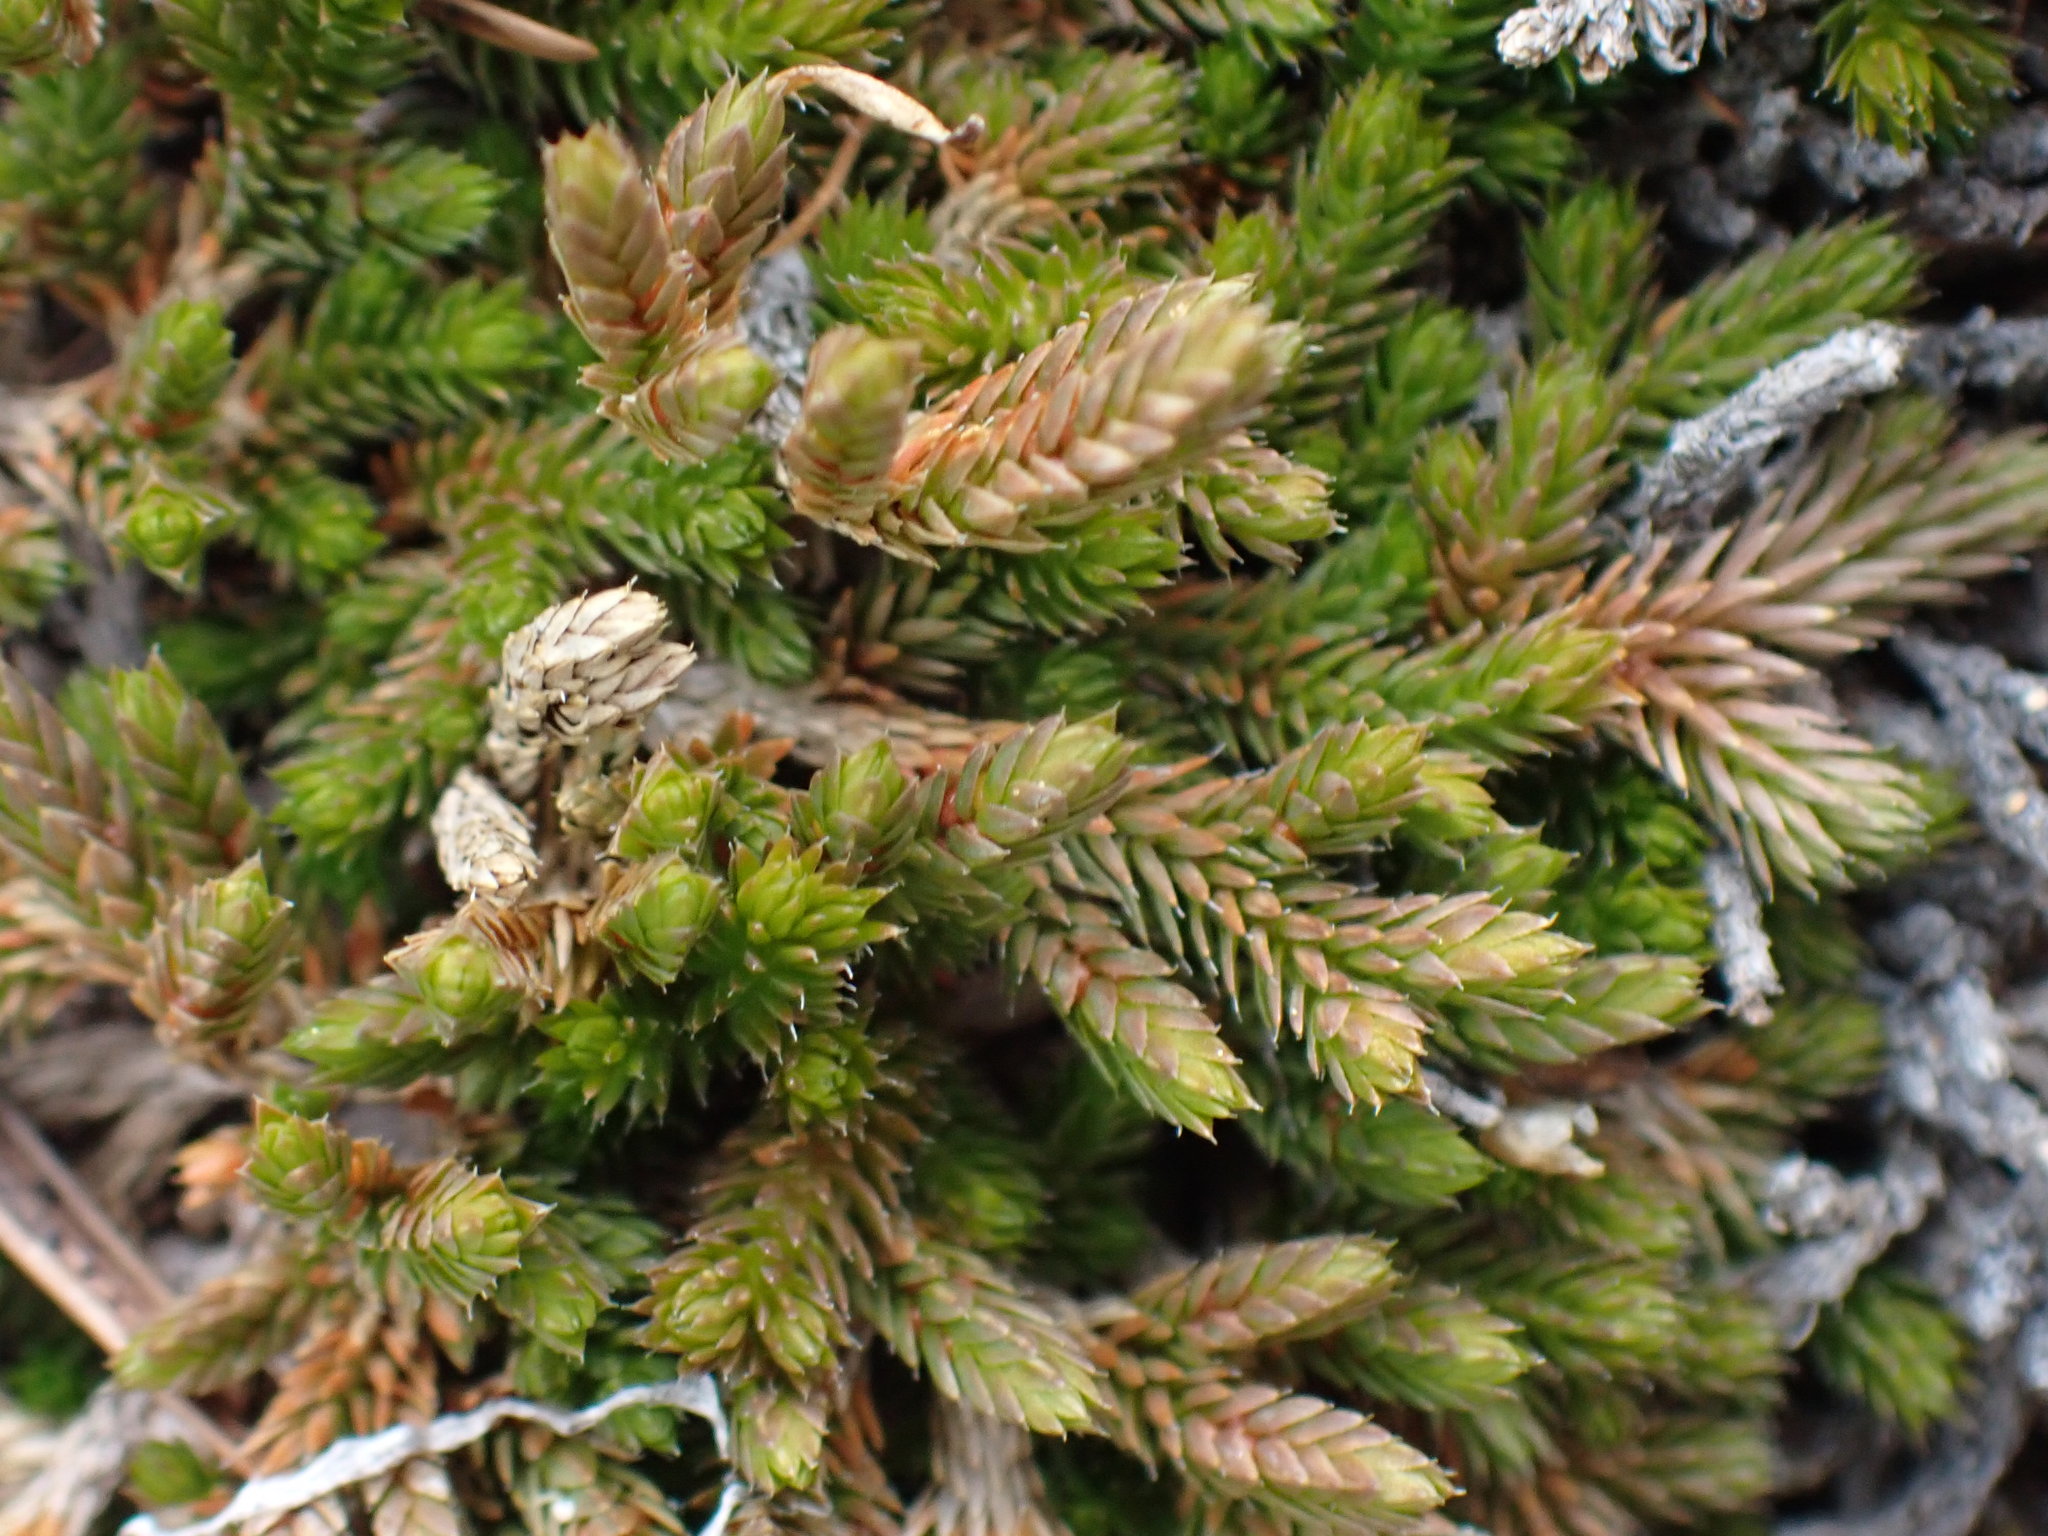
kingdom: Plantae
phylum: Tracheophyta
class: Lycopodiopsida
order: Selaginellales
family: Selaginellaceae
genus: Selaginella
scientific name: Selaginella wallacei
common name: Wallace's selaginella
